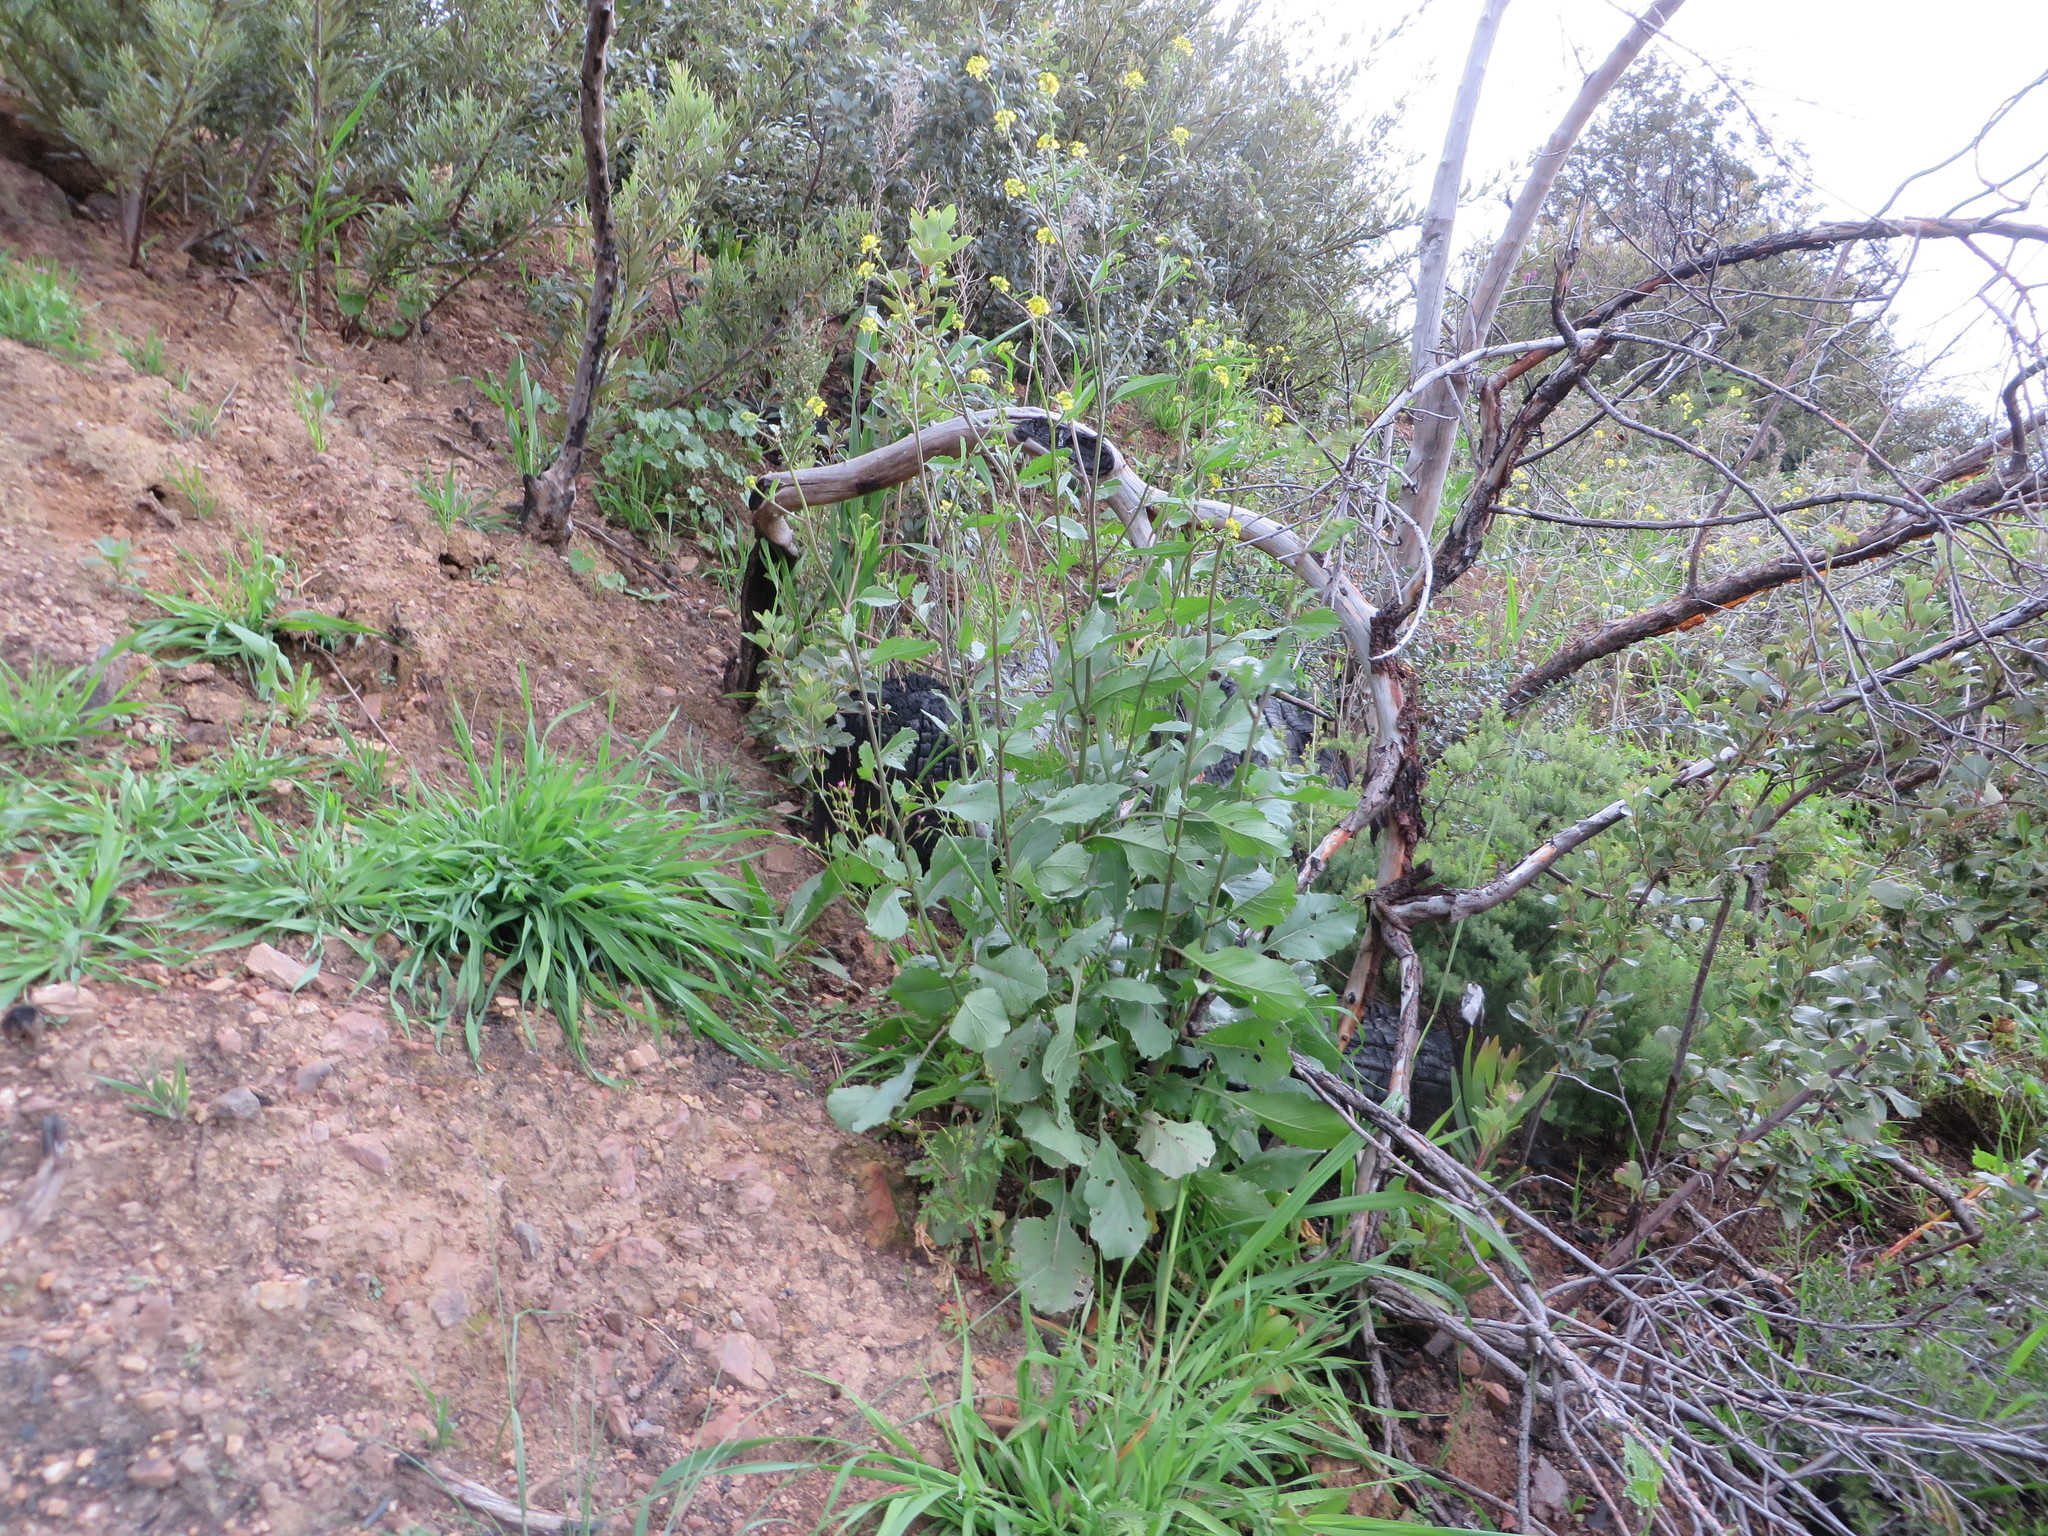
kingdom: Plantae
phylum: Tracheophyta
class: Magnoliopsida
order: Brassicales
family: Brassicaceae
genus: Rapistrum
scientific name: Rapistrum rugosum
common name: Annual bastardcabbage
